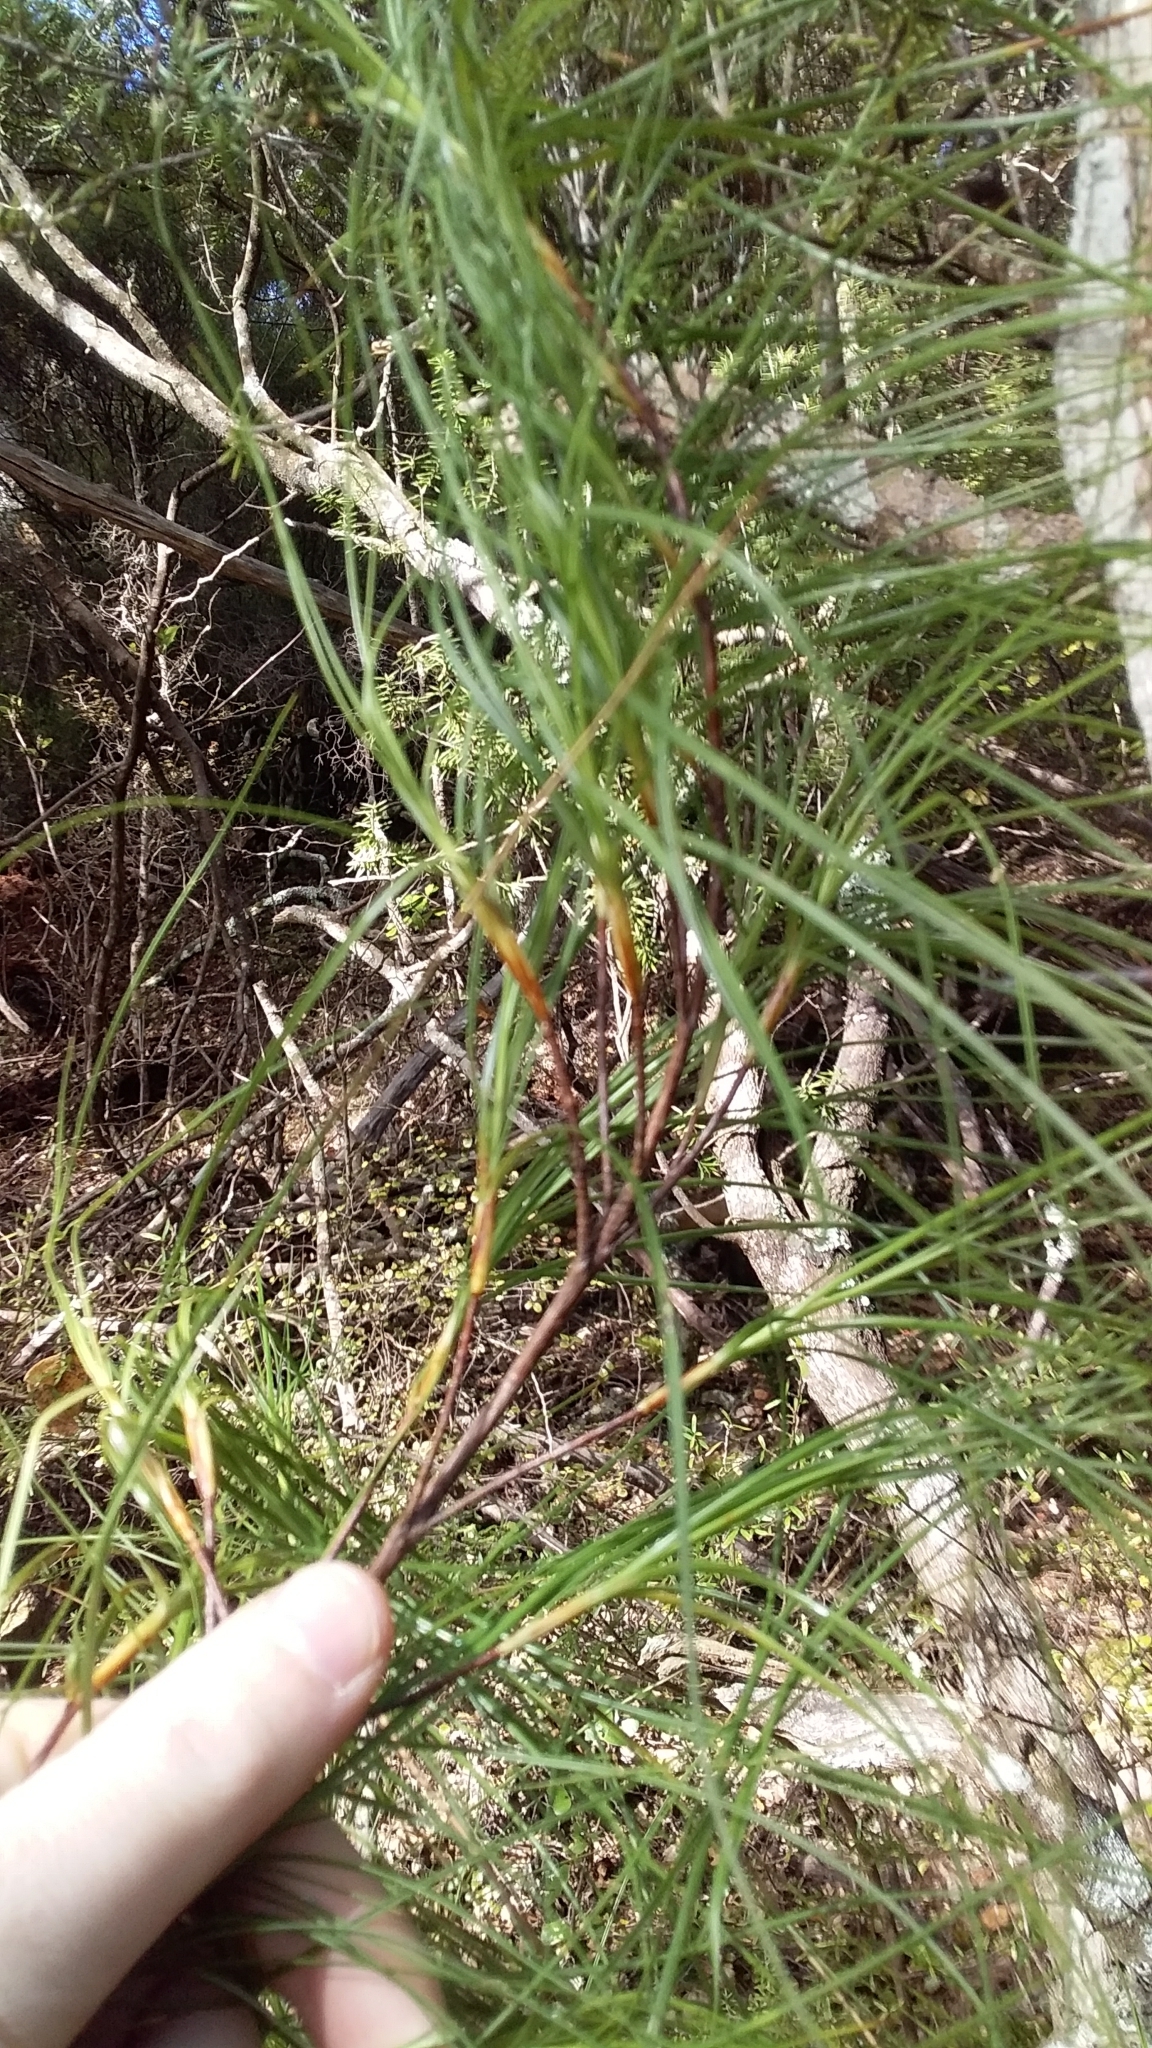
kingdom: Plantae
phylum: Tracheophyta
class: Magnoliopsida
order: Ericales
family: Ericaceae
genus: Dracophyllum
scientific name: Dracophyllum filifolium
